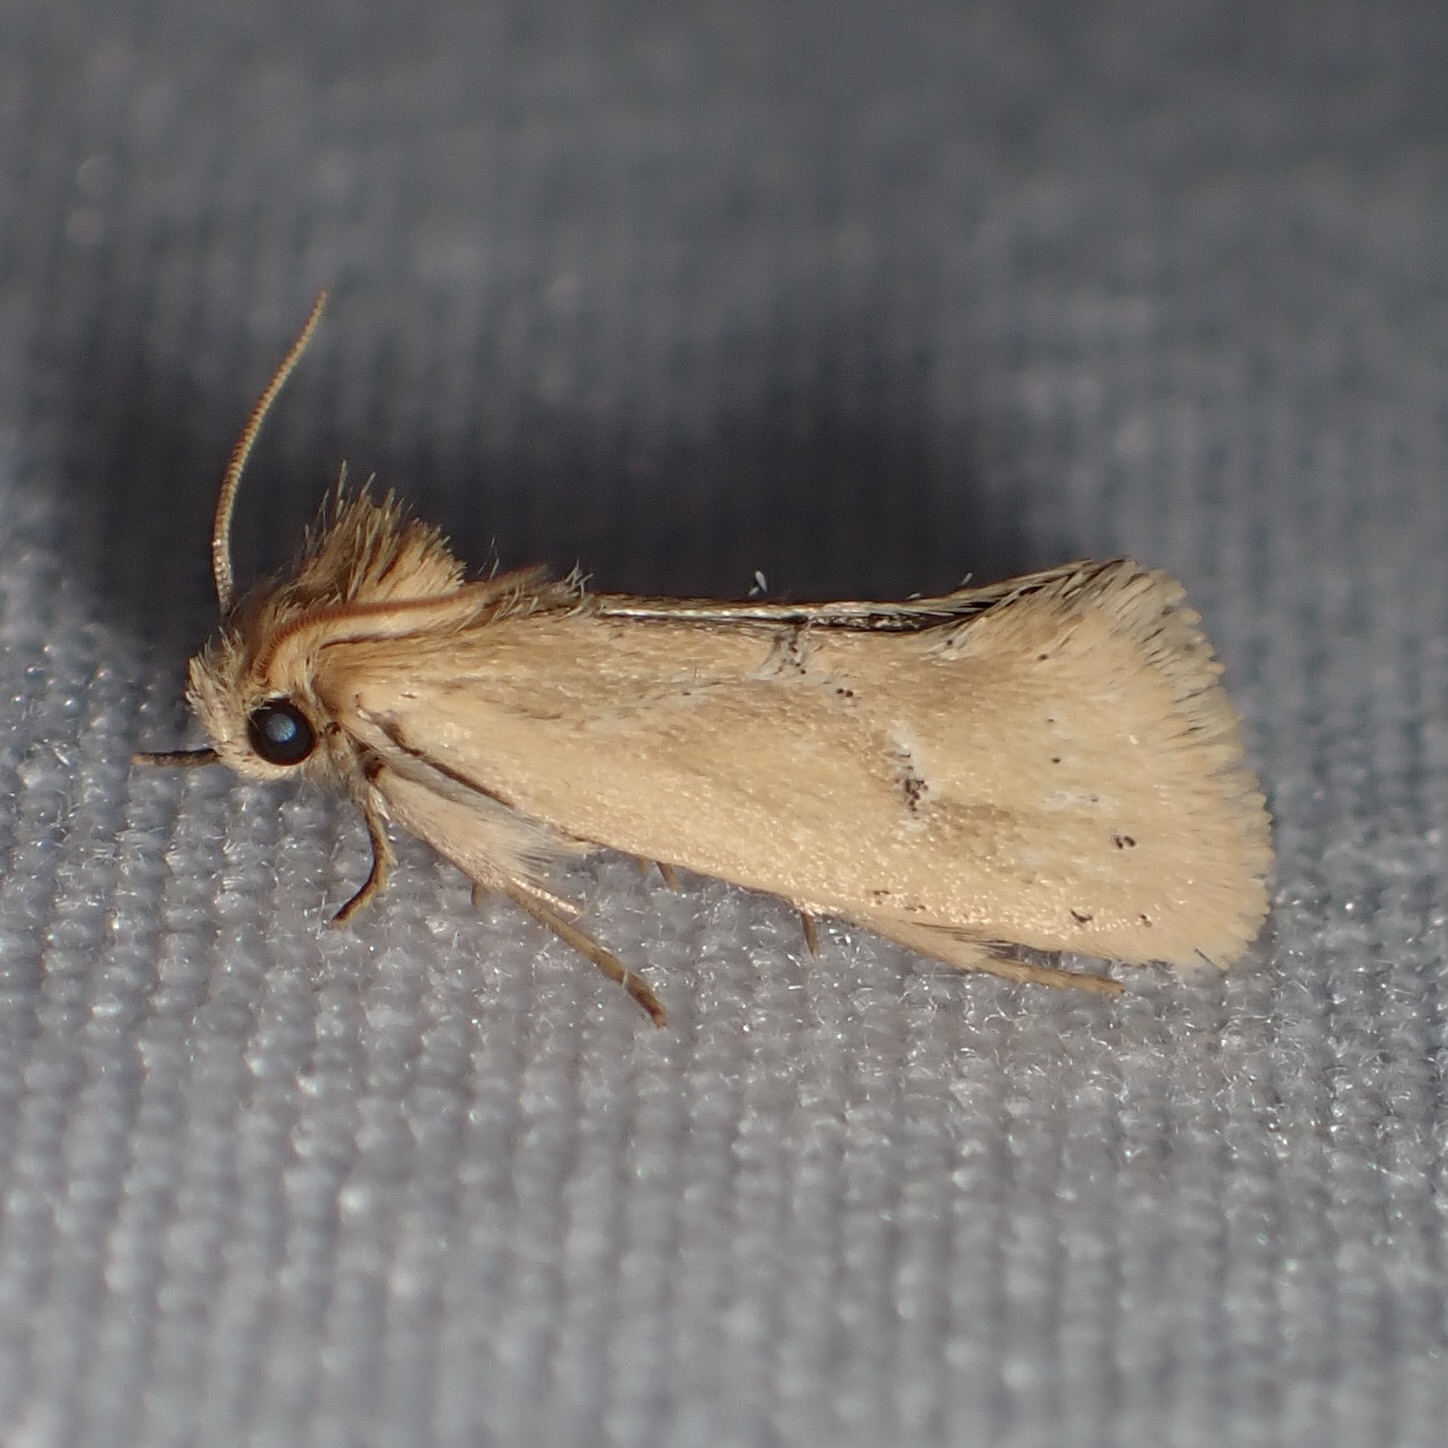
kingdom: Animalia
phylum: Arthropoda
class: Insecta
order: Lepidoptera
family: Tineidae
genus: Acrolophus
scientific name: Acrolophus laticapitana
